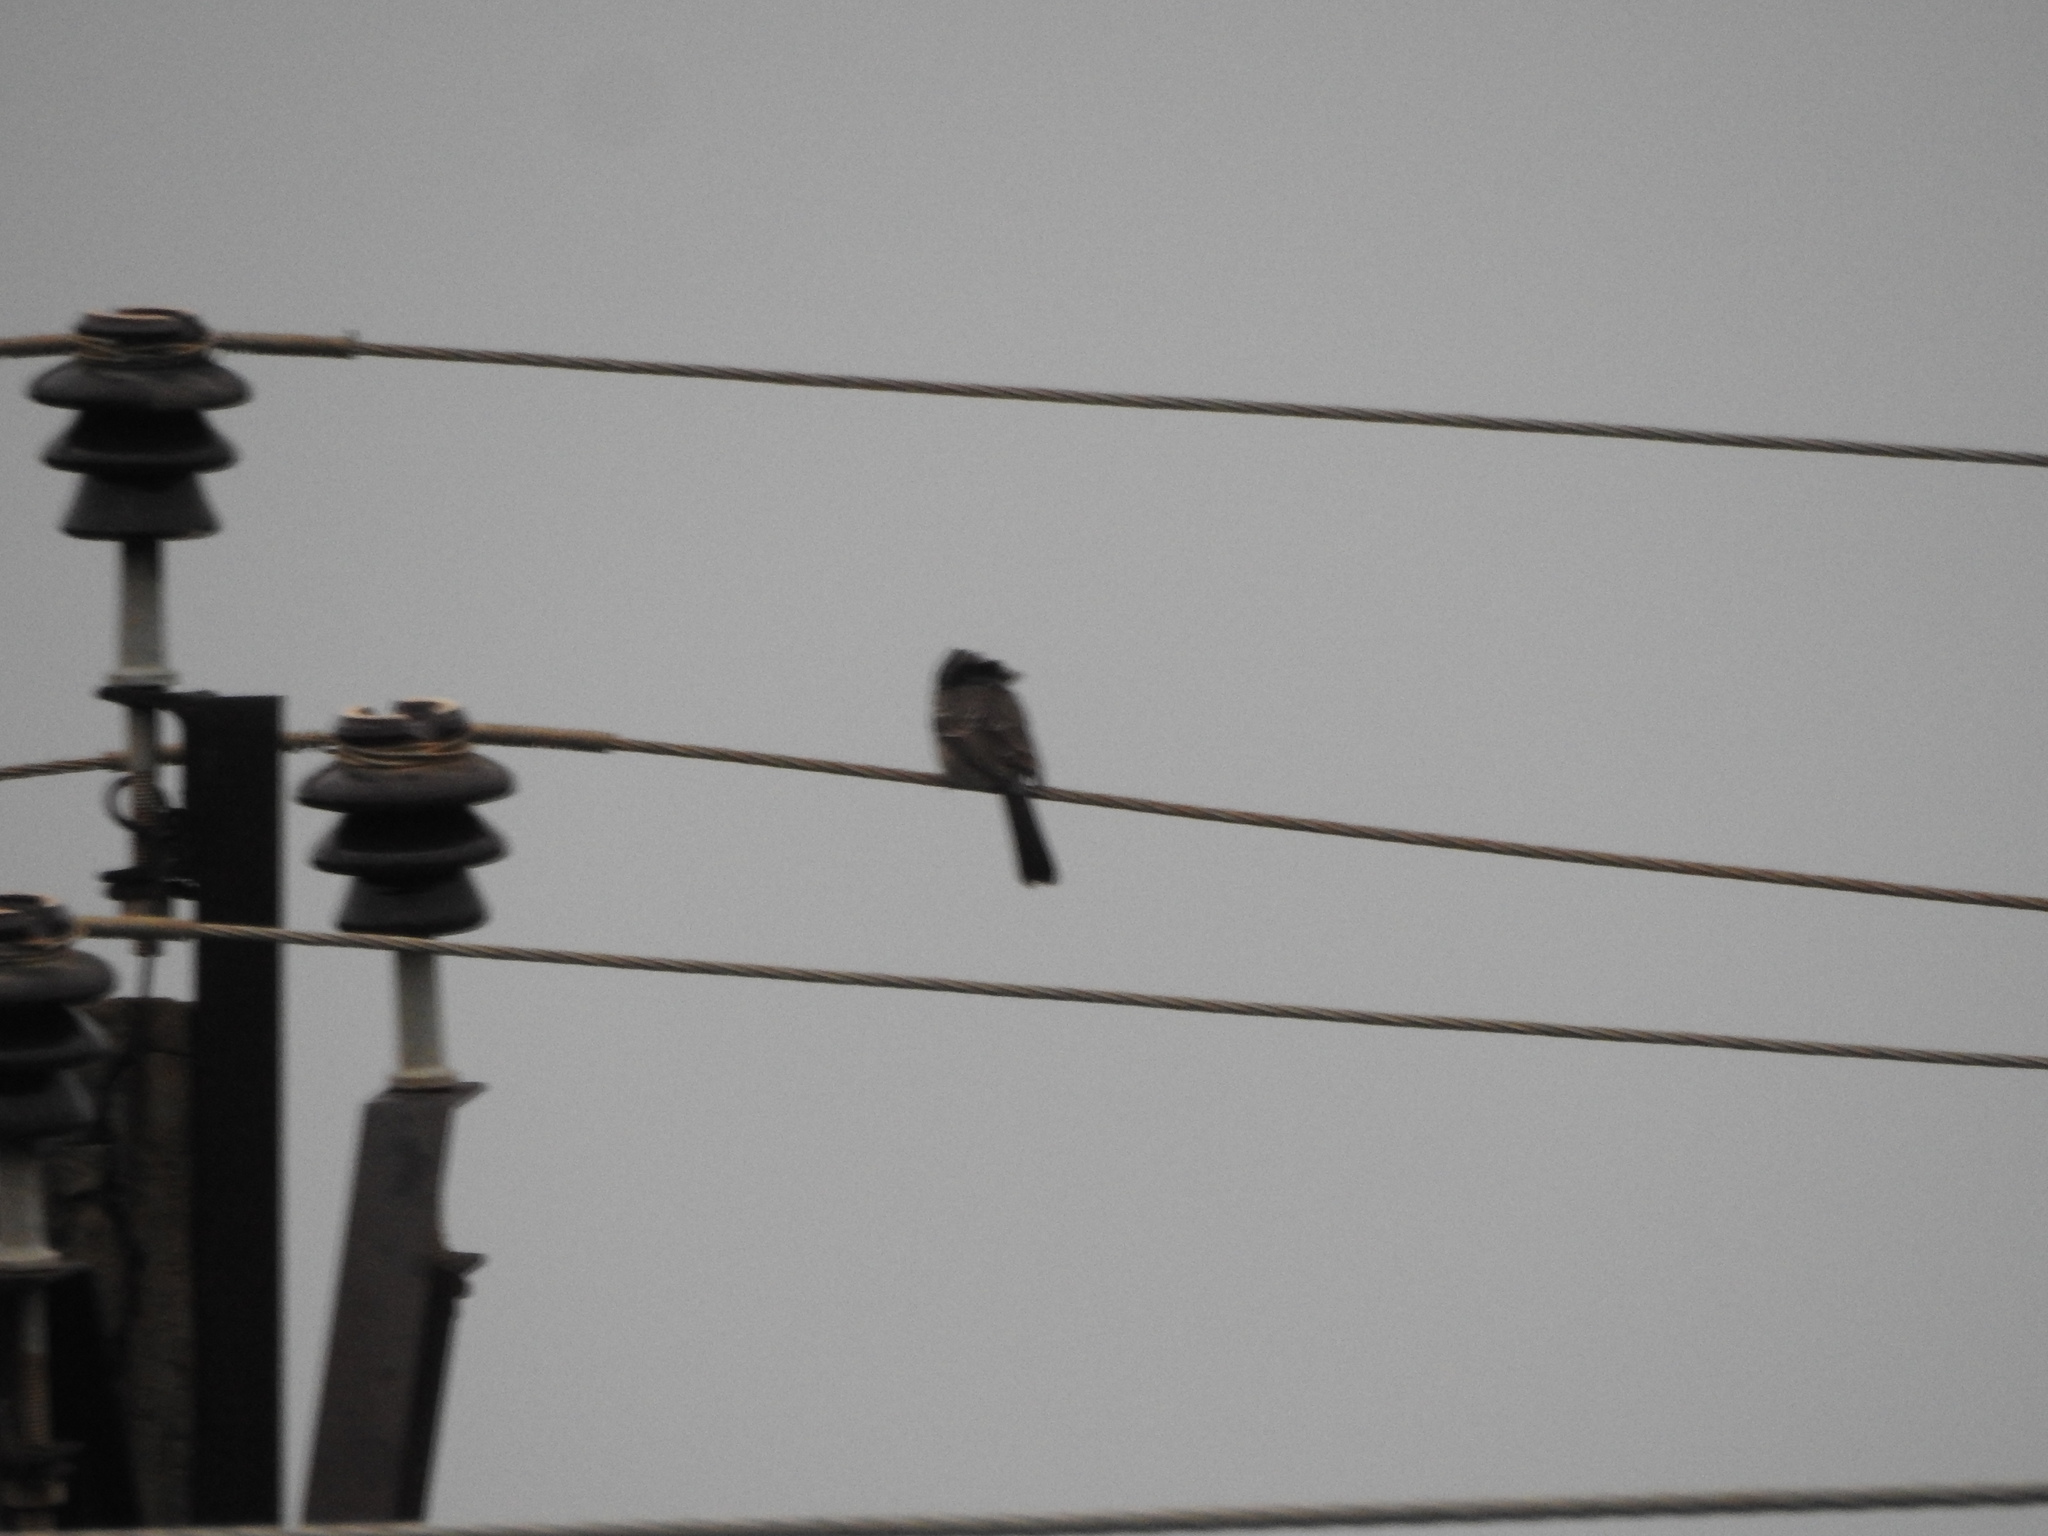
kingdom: Animalia
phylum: Chordata
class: Aves
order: Passeriformes
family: Pycnonotidae
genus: Pycnonotus
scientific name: Pycnonotus cafer
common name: Red-vented bulbul
